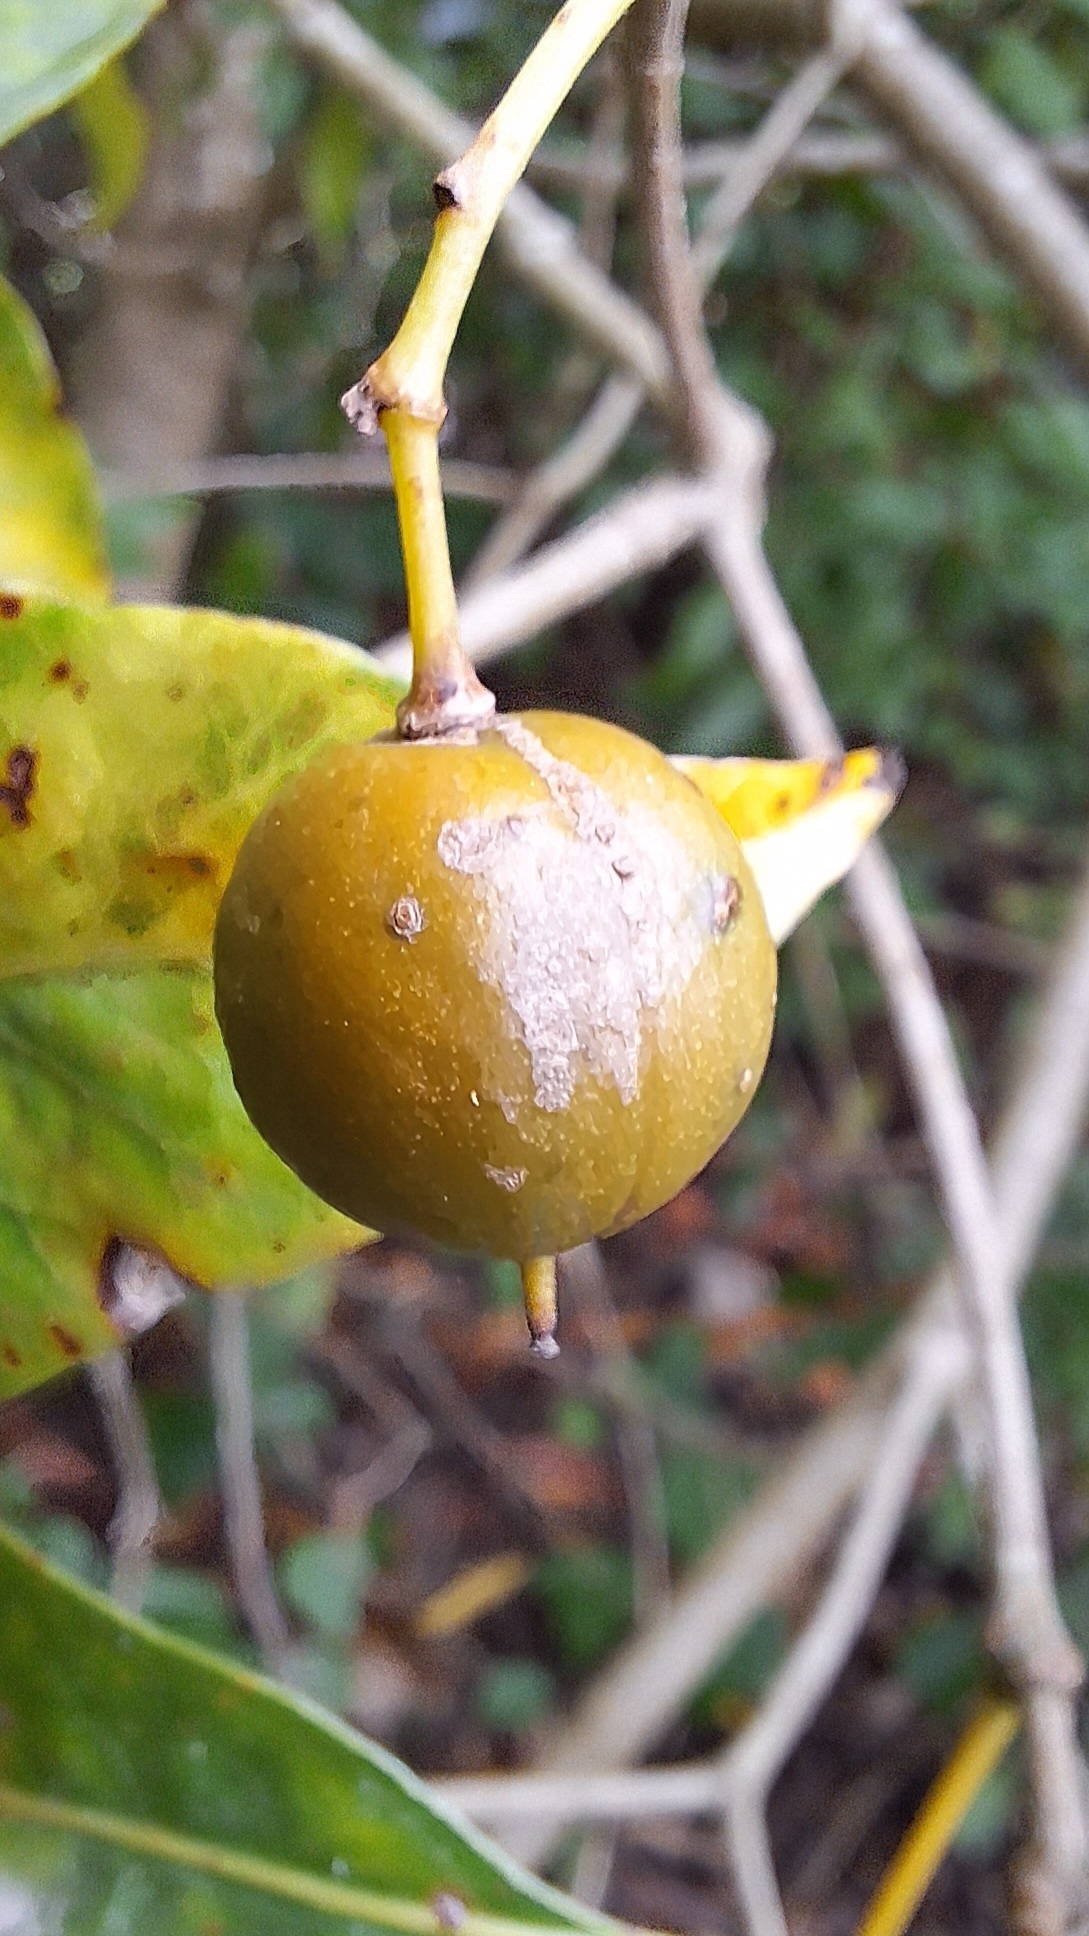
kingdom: Plantae
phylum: Tracheophyta
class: Magnoliopsida
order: Apiales
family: Pittosporaceae
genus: Pittosporum
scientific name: Pittosporum undulatum
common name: Australian cheesewood
